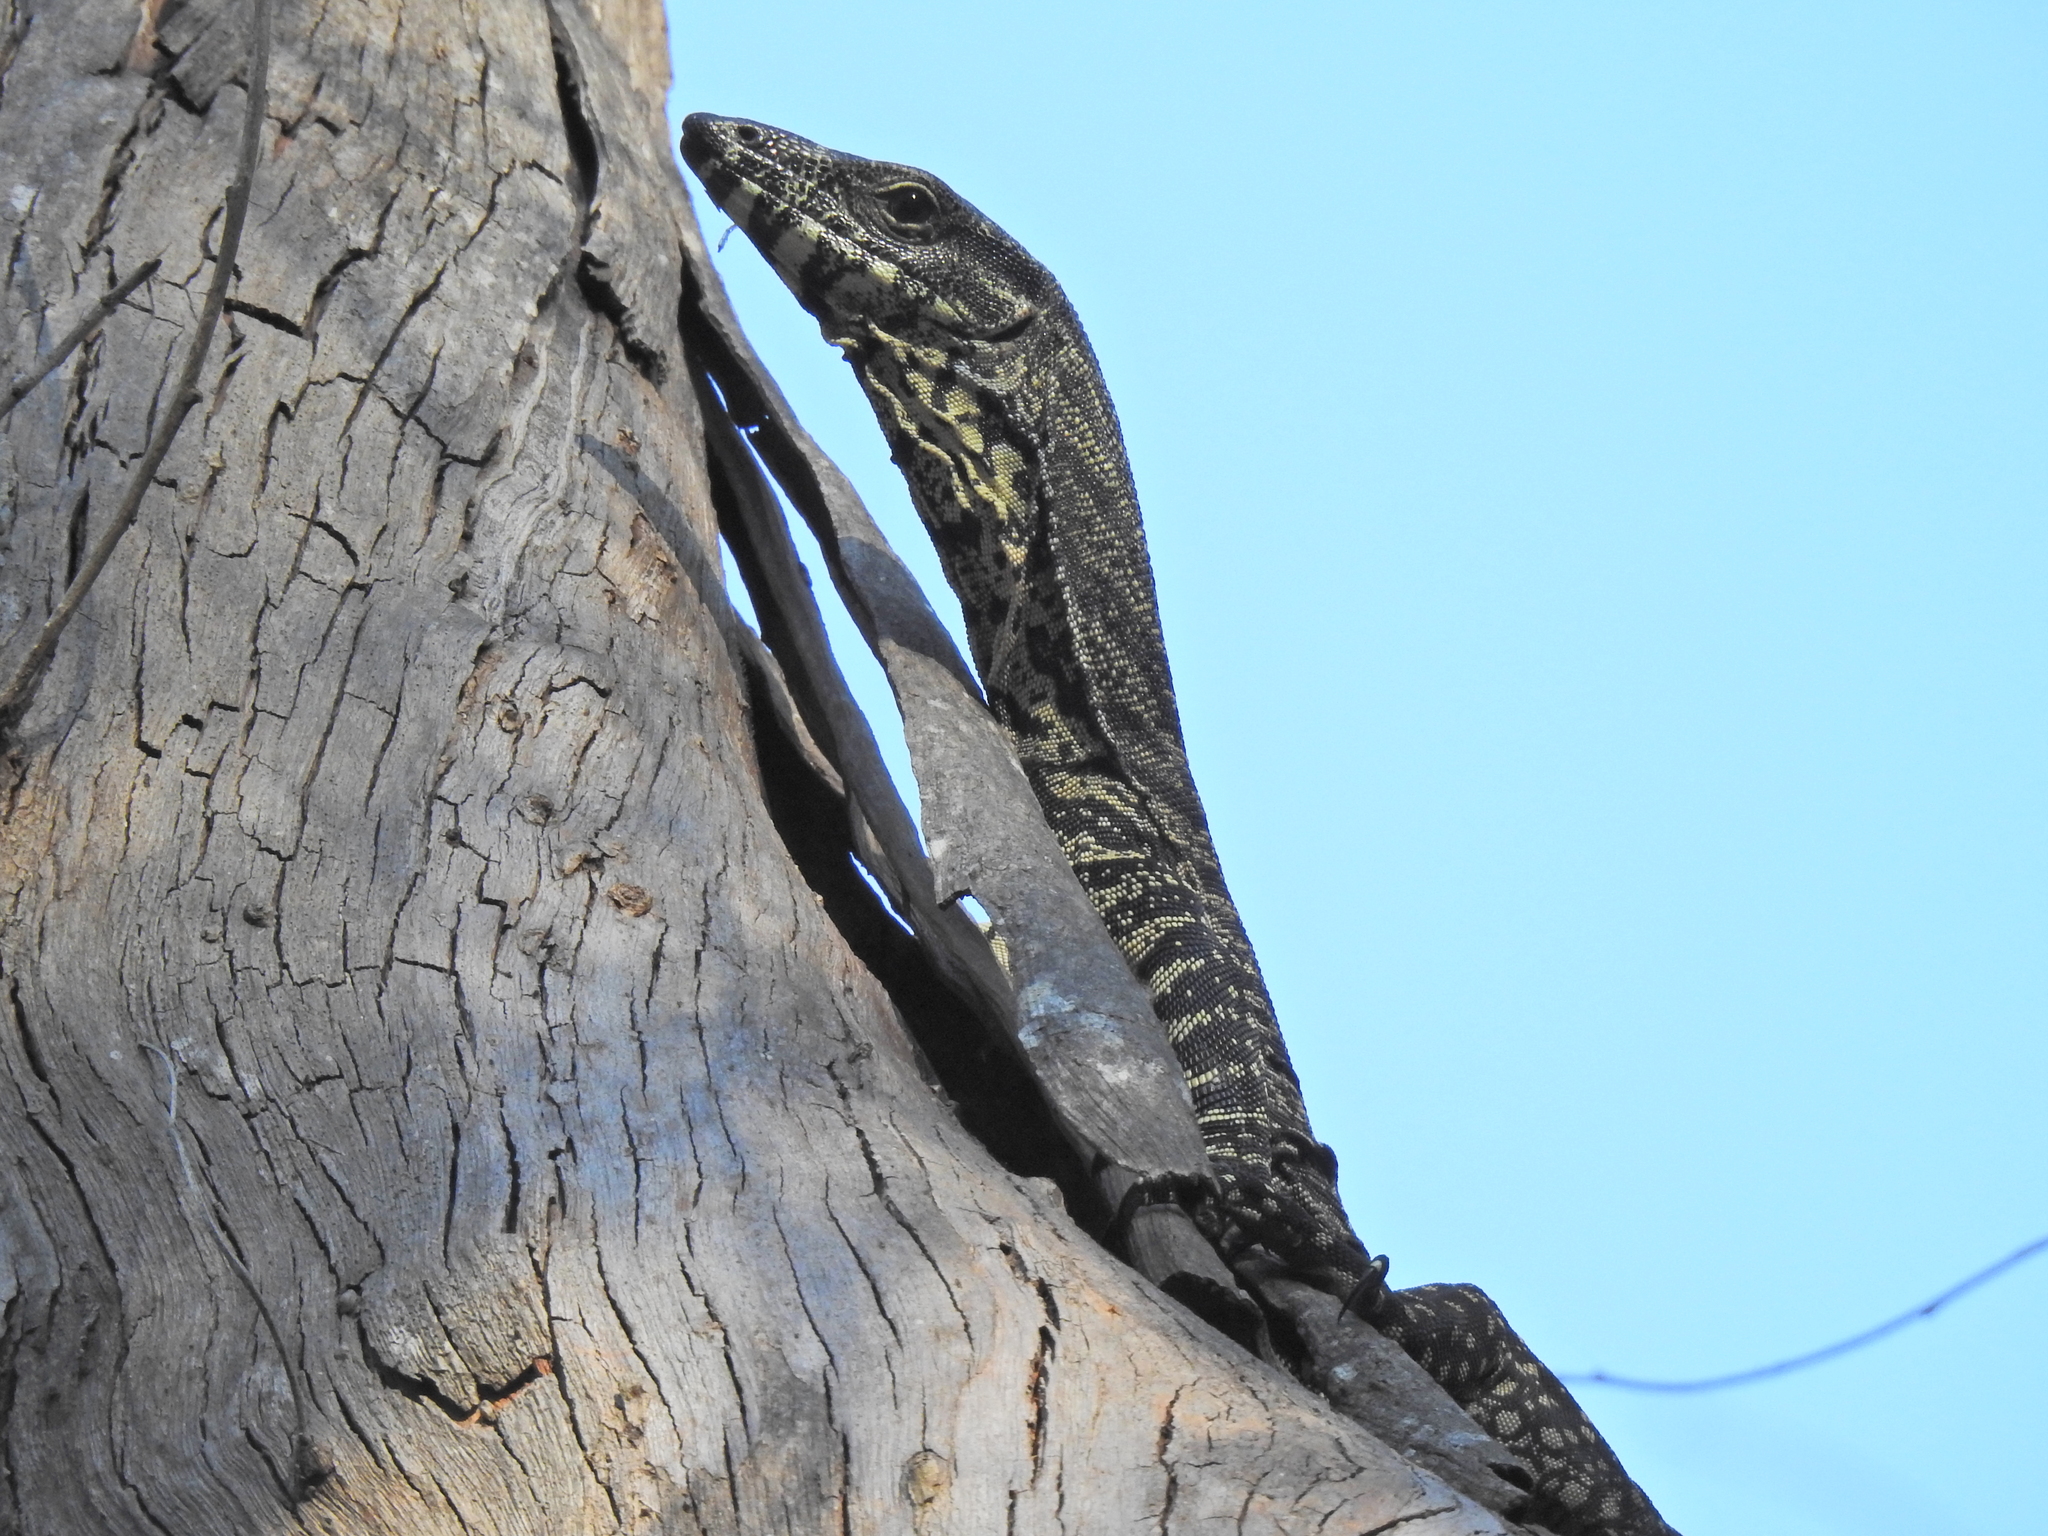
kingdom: Animalia
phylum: Chordata
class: Squamata
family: Varanidae
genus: Varanus
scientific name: Varanus varius
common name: Lace monitor
